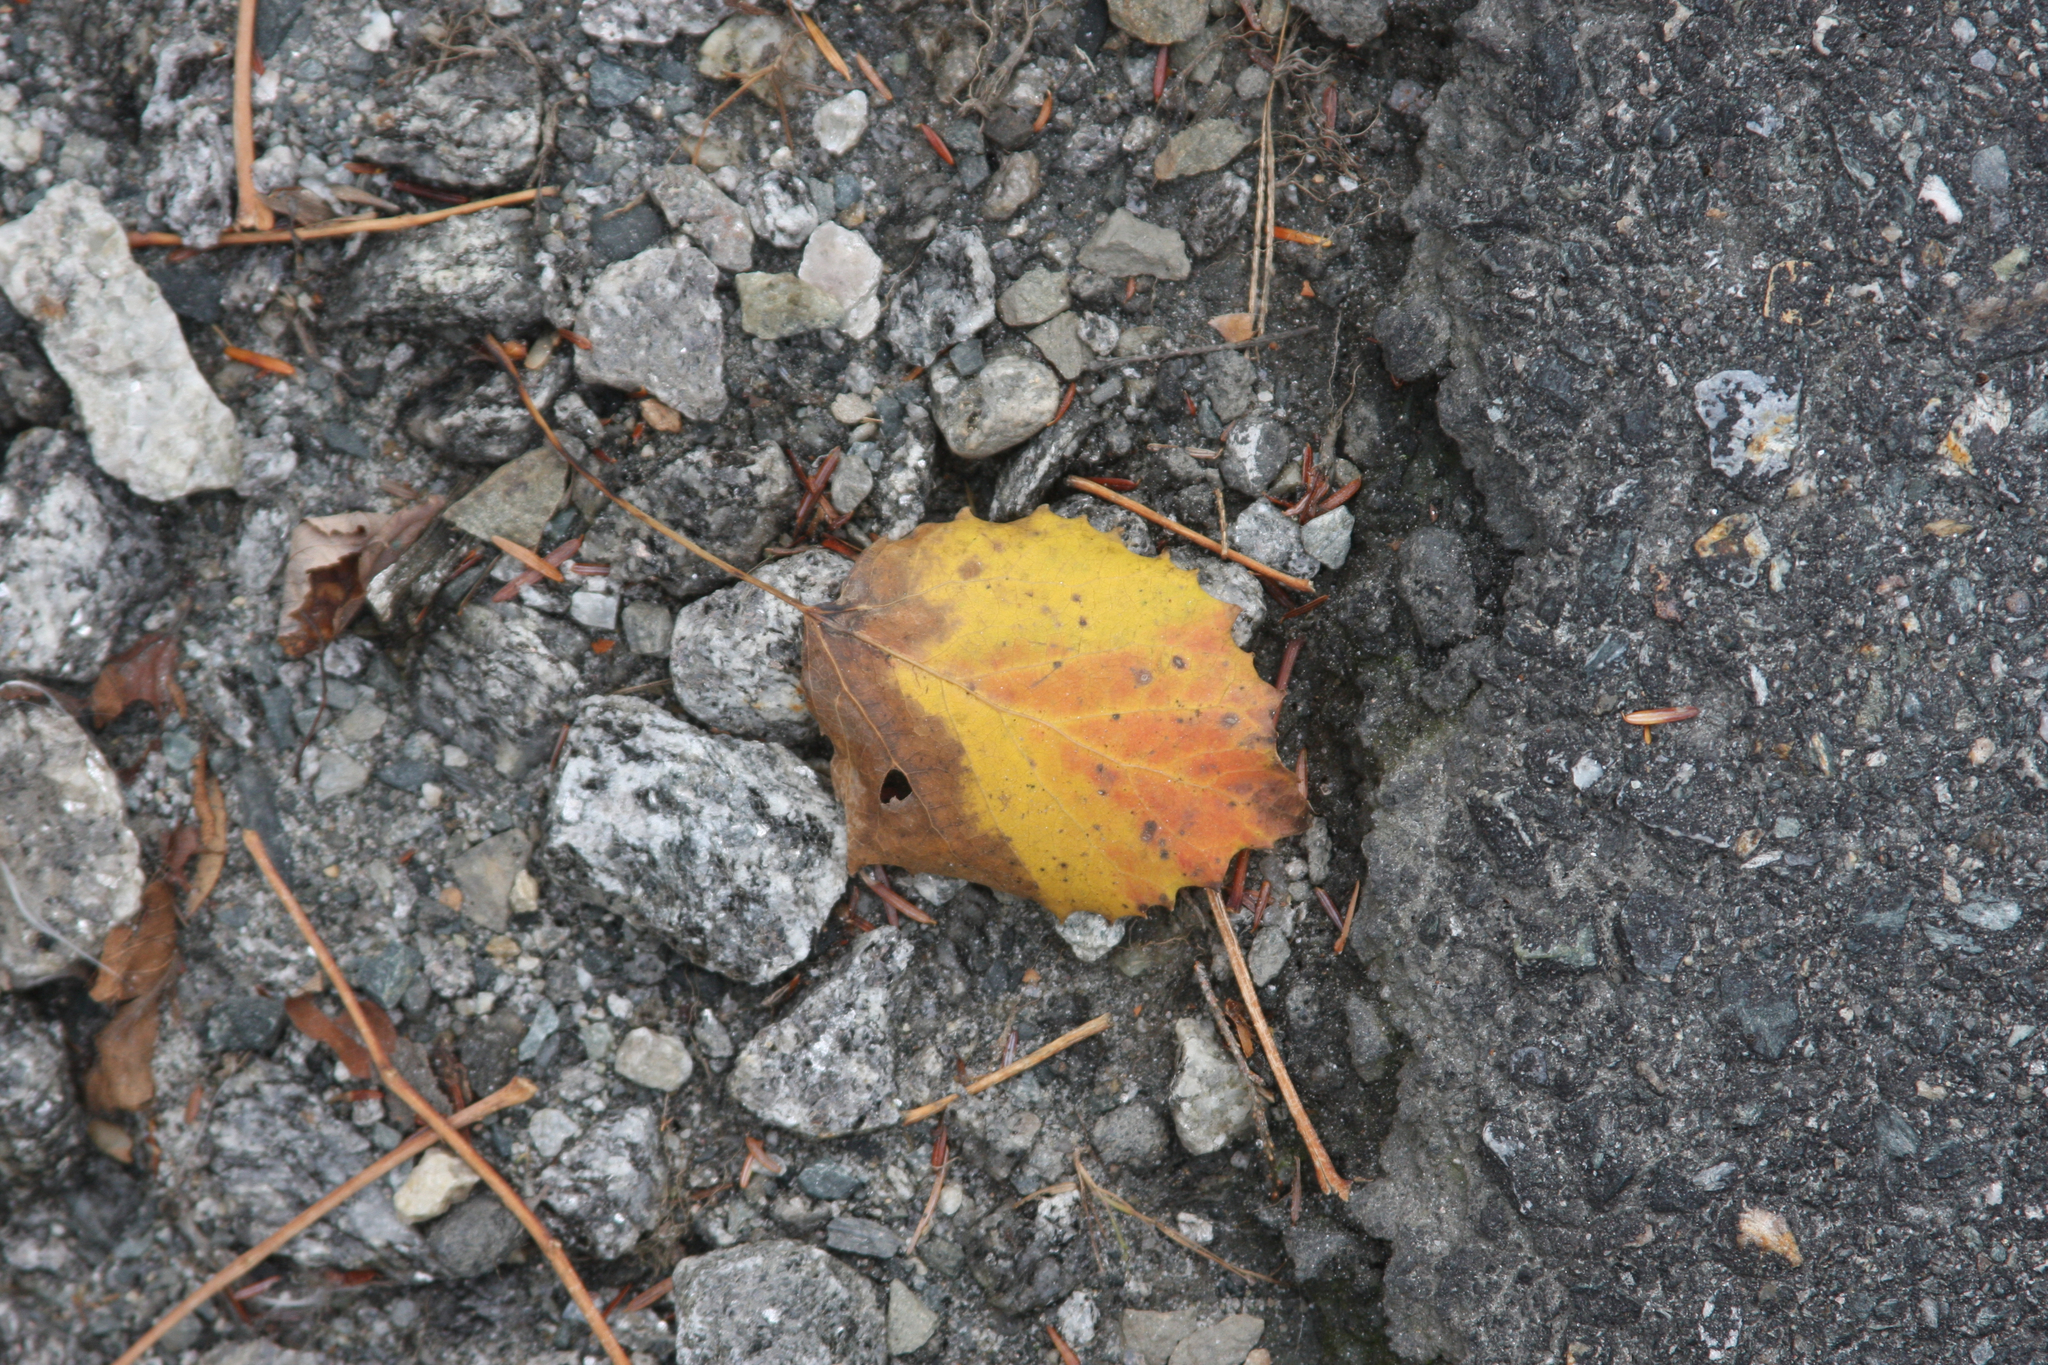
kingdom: Plantae
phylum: Tracheophyta
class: Magnoliopsida
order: Malpighiales
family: Salicaceae
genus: Populus
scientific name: Populus grandidentata
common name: Bigtooth aspen
